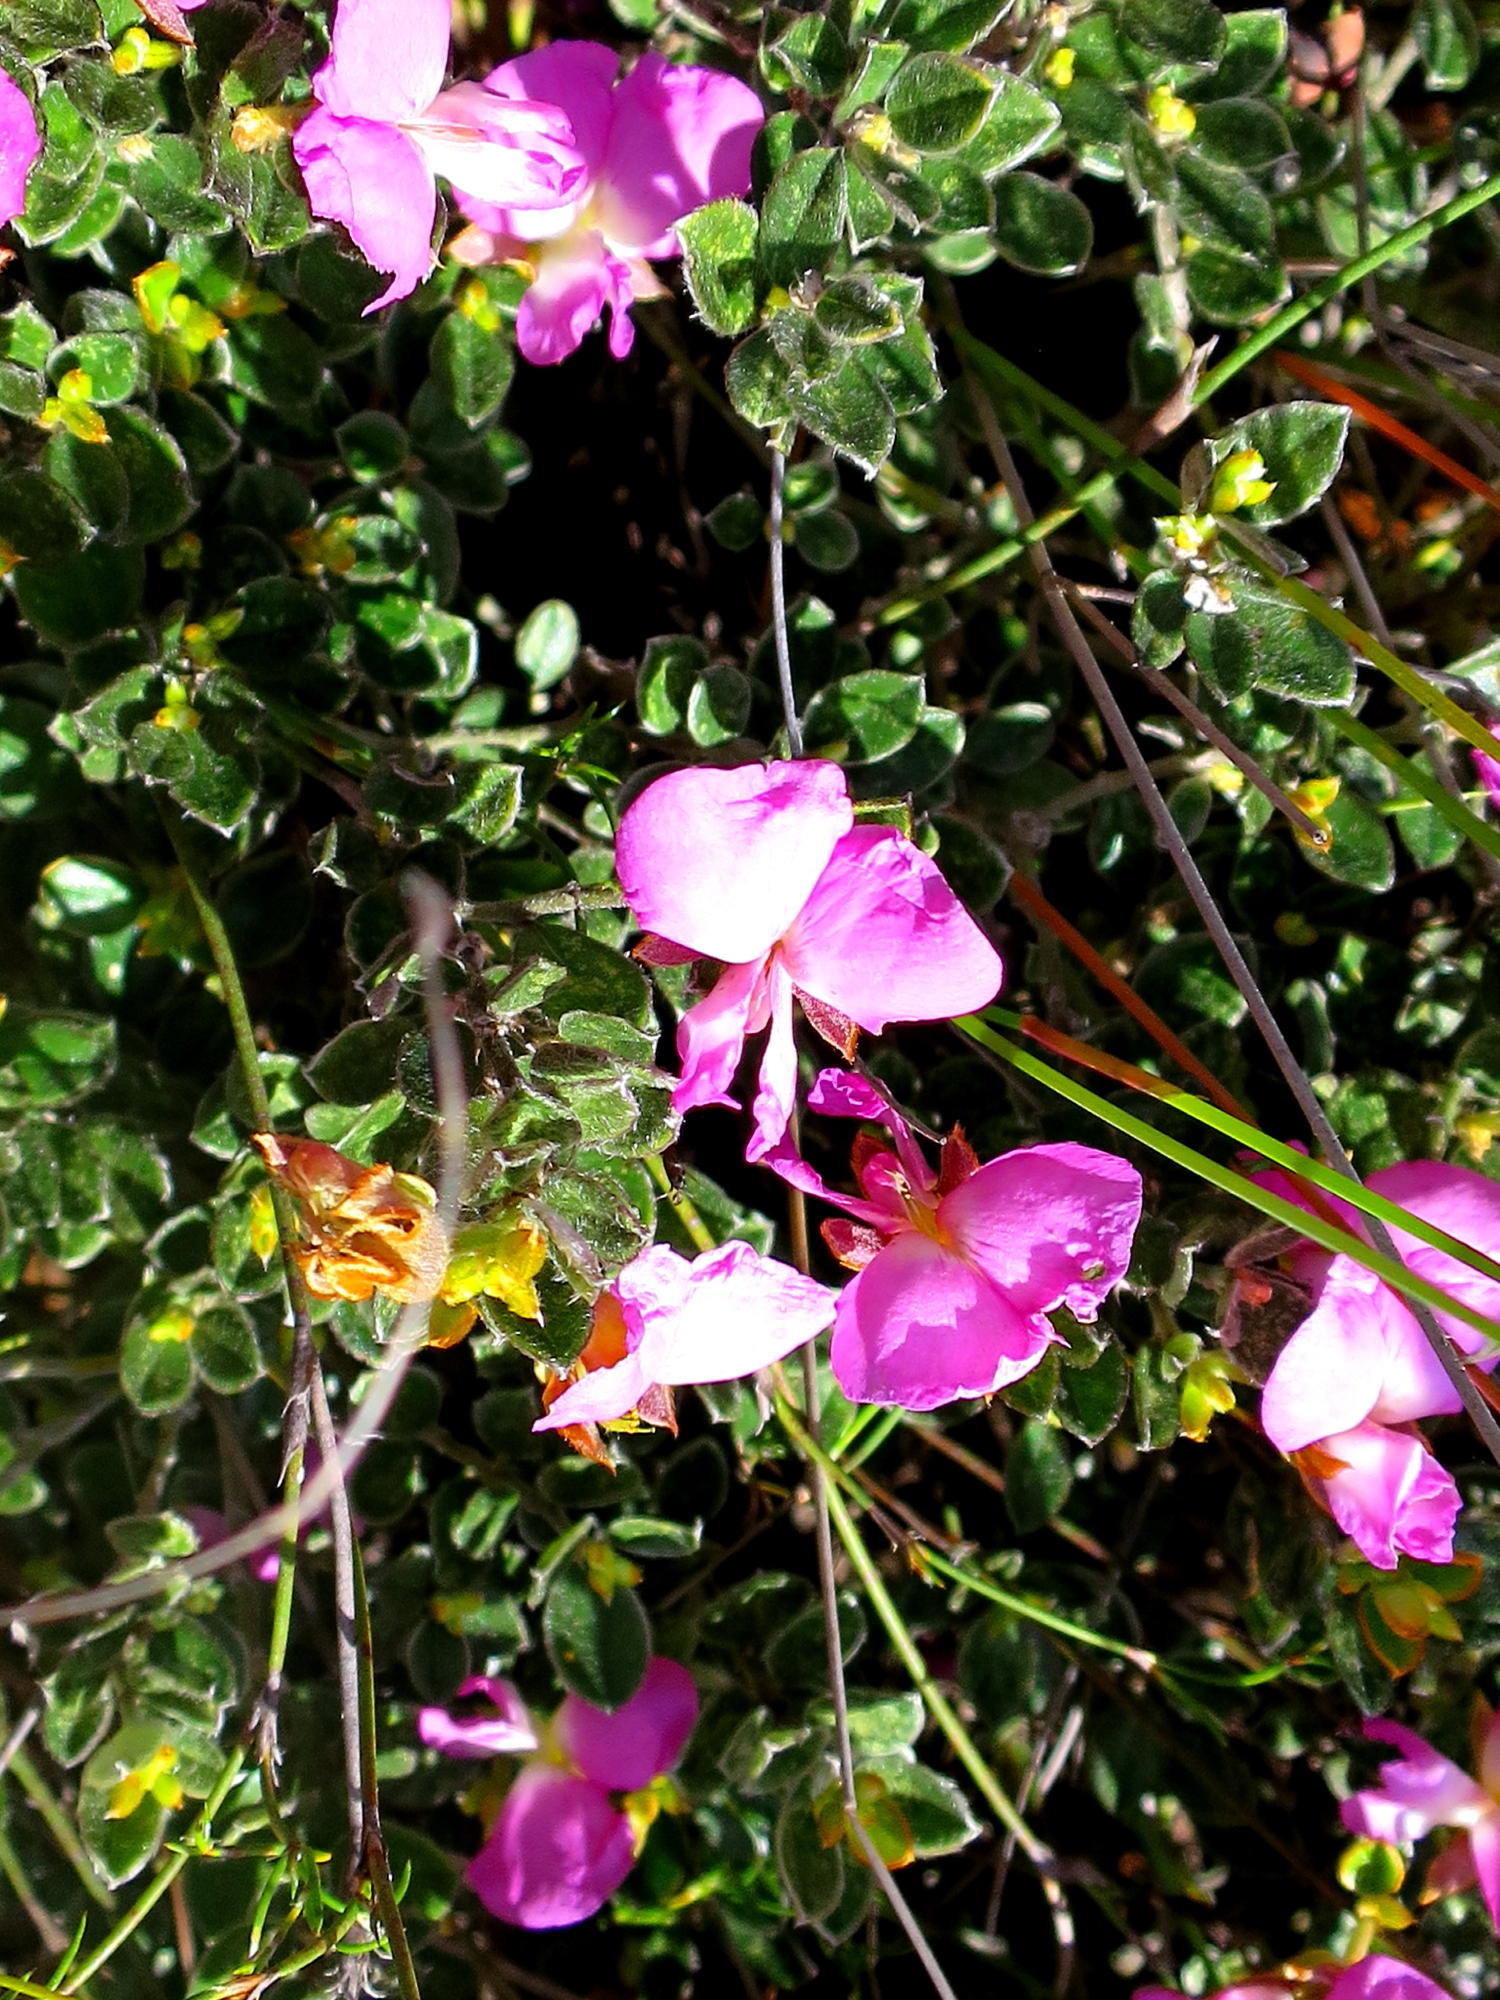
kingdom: Plantae
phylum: Tracheophyta
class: Magnoliopsida
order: Fabales
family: Fabaceae
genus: Podalyria
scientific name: Podalyria biflora
